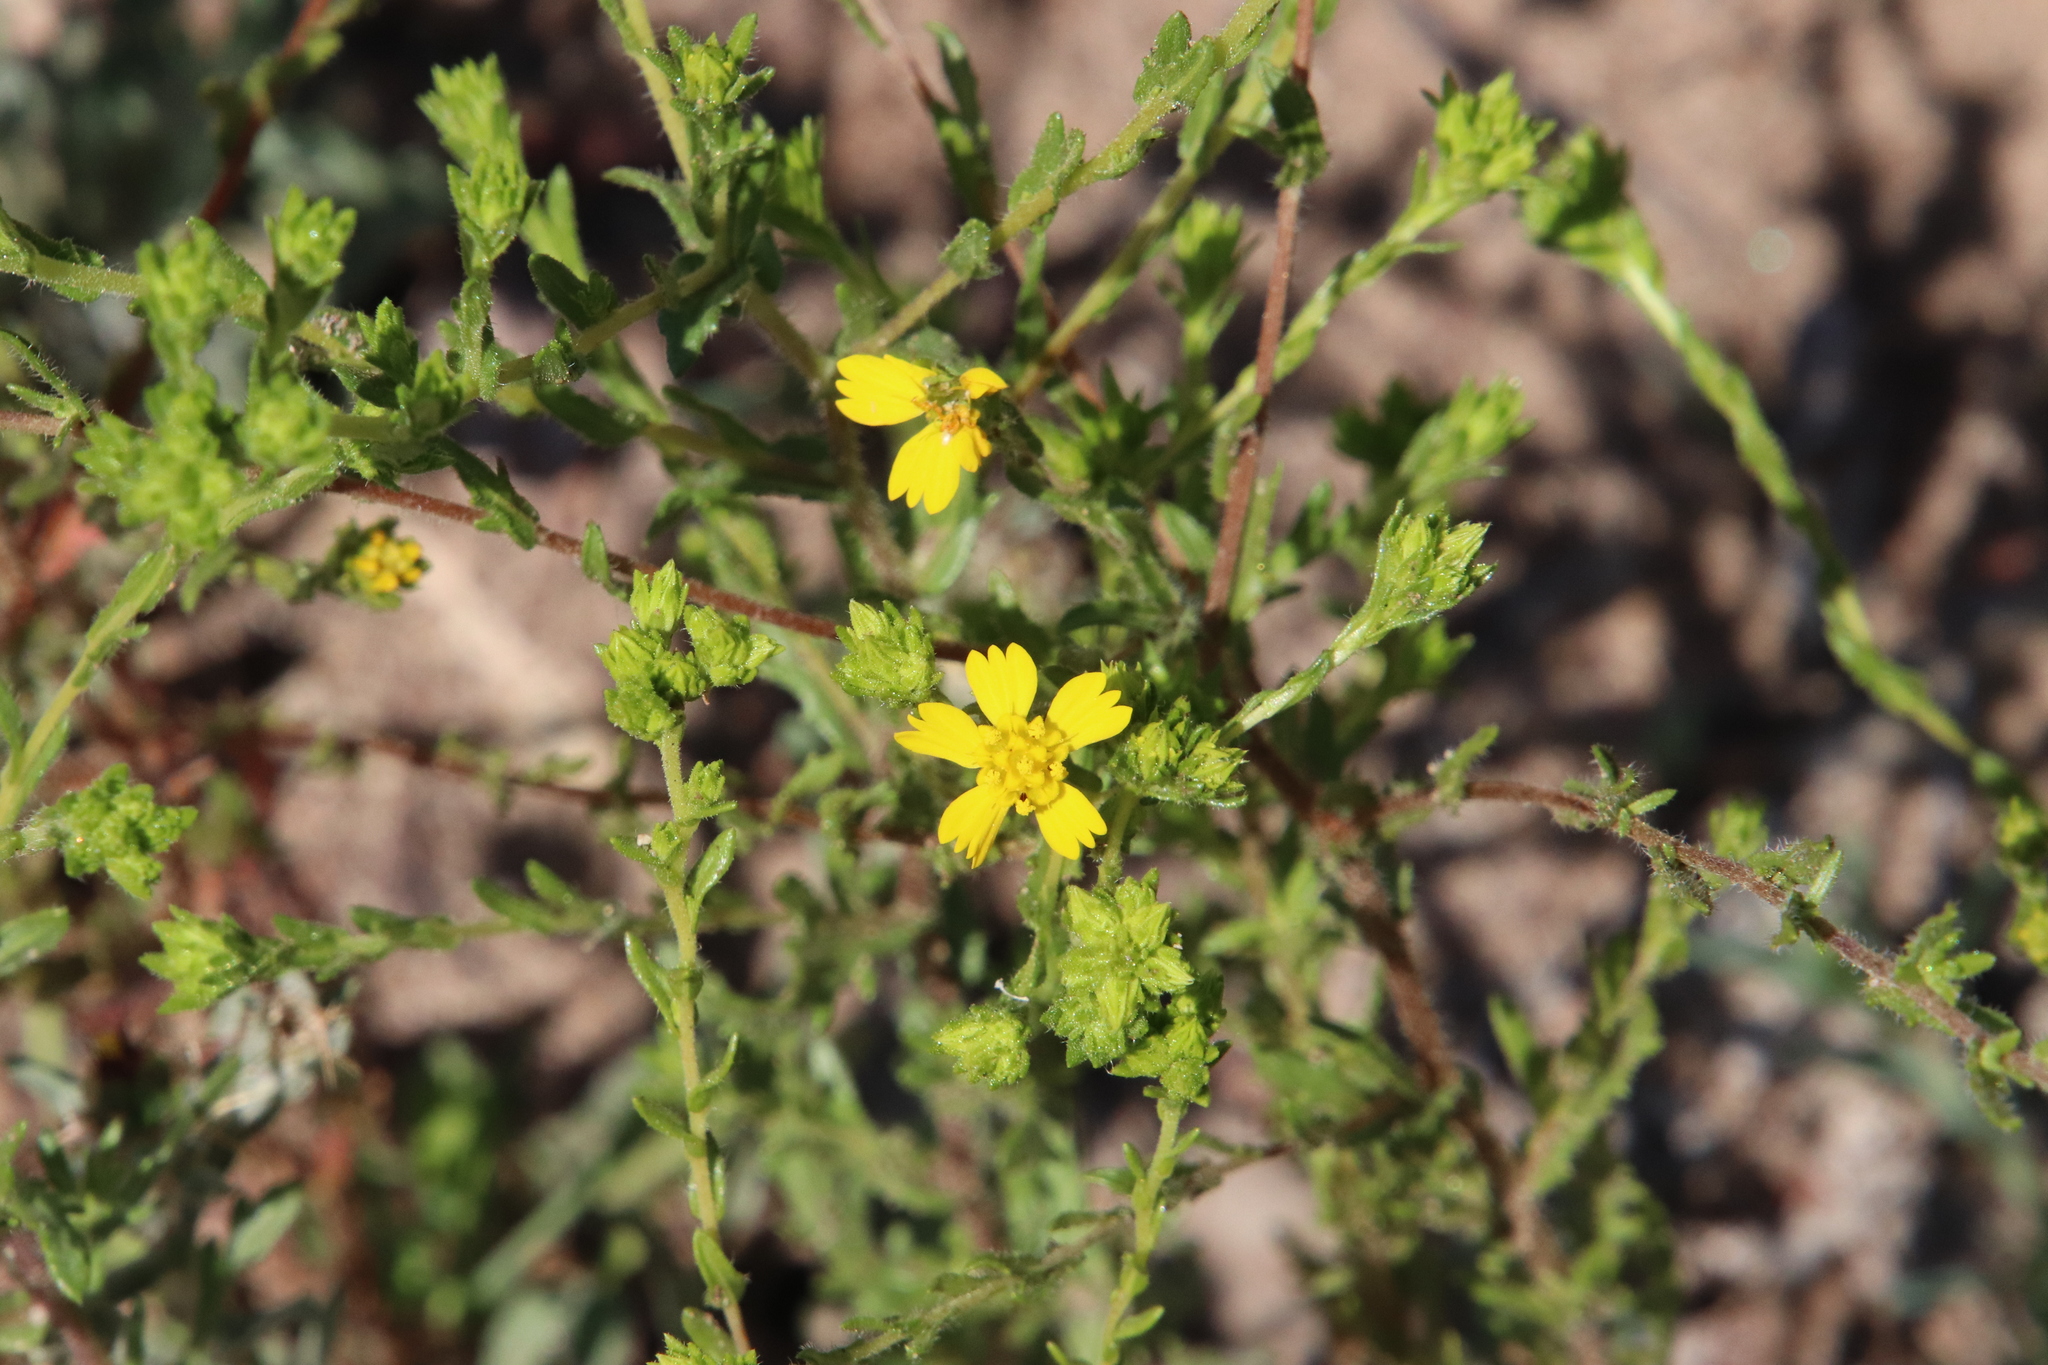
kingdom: Plantae
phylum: Tracheophyta
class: Magnoliopsida
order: Asterales
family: Asteraceae
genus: Deinandra
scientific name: Deinandra fasciculata
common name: Clustered tarweed
